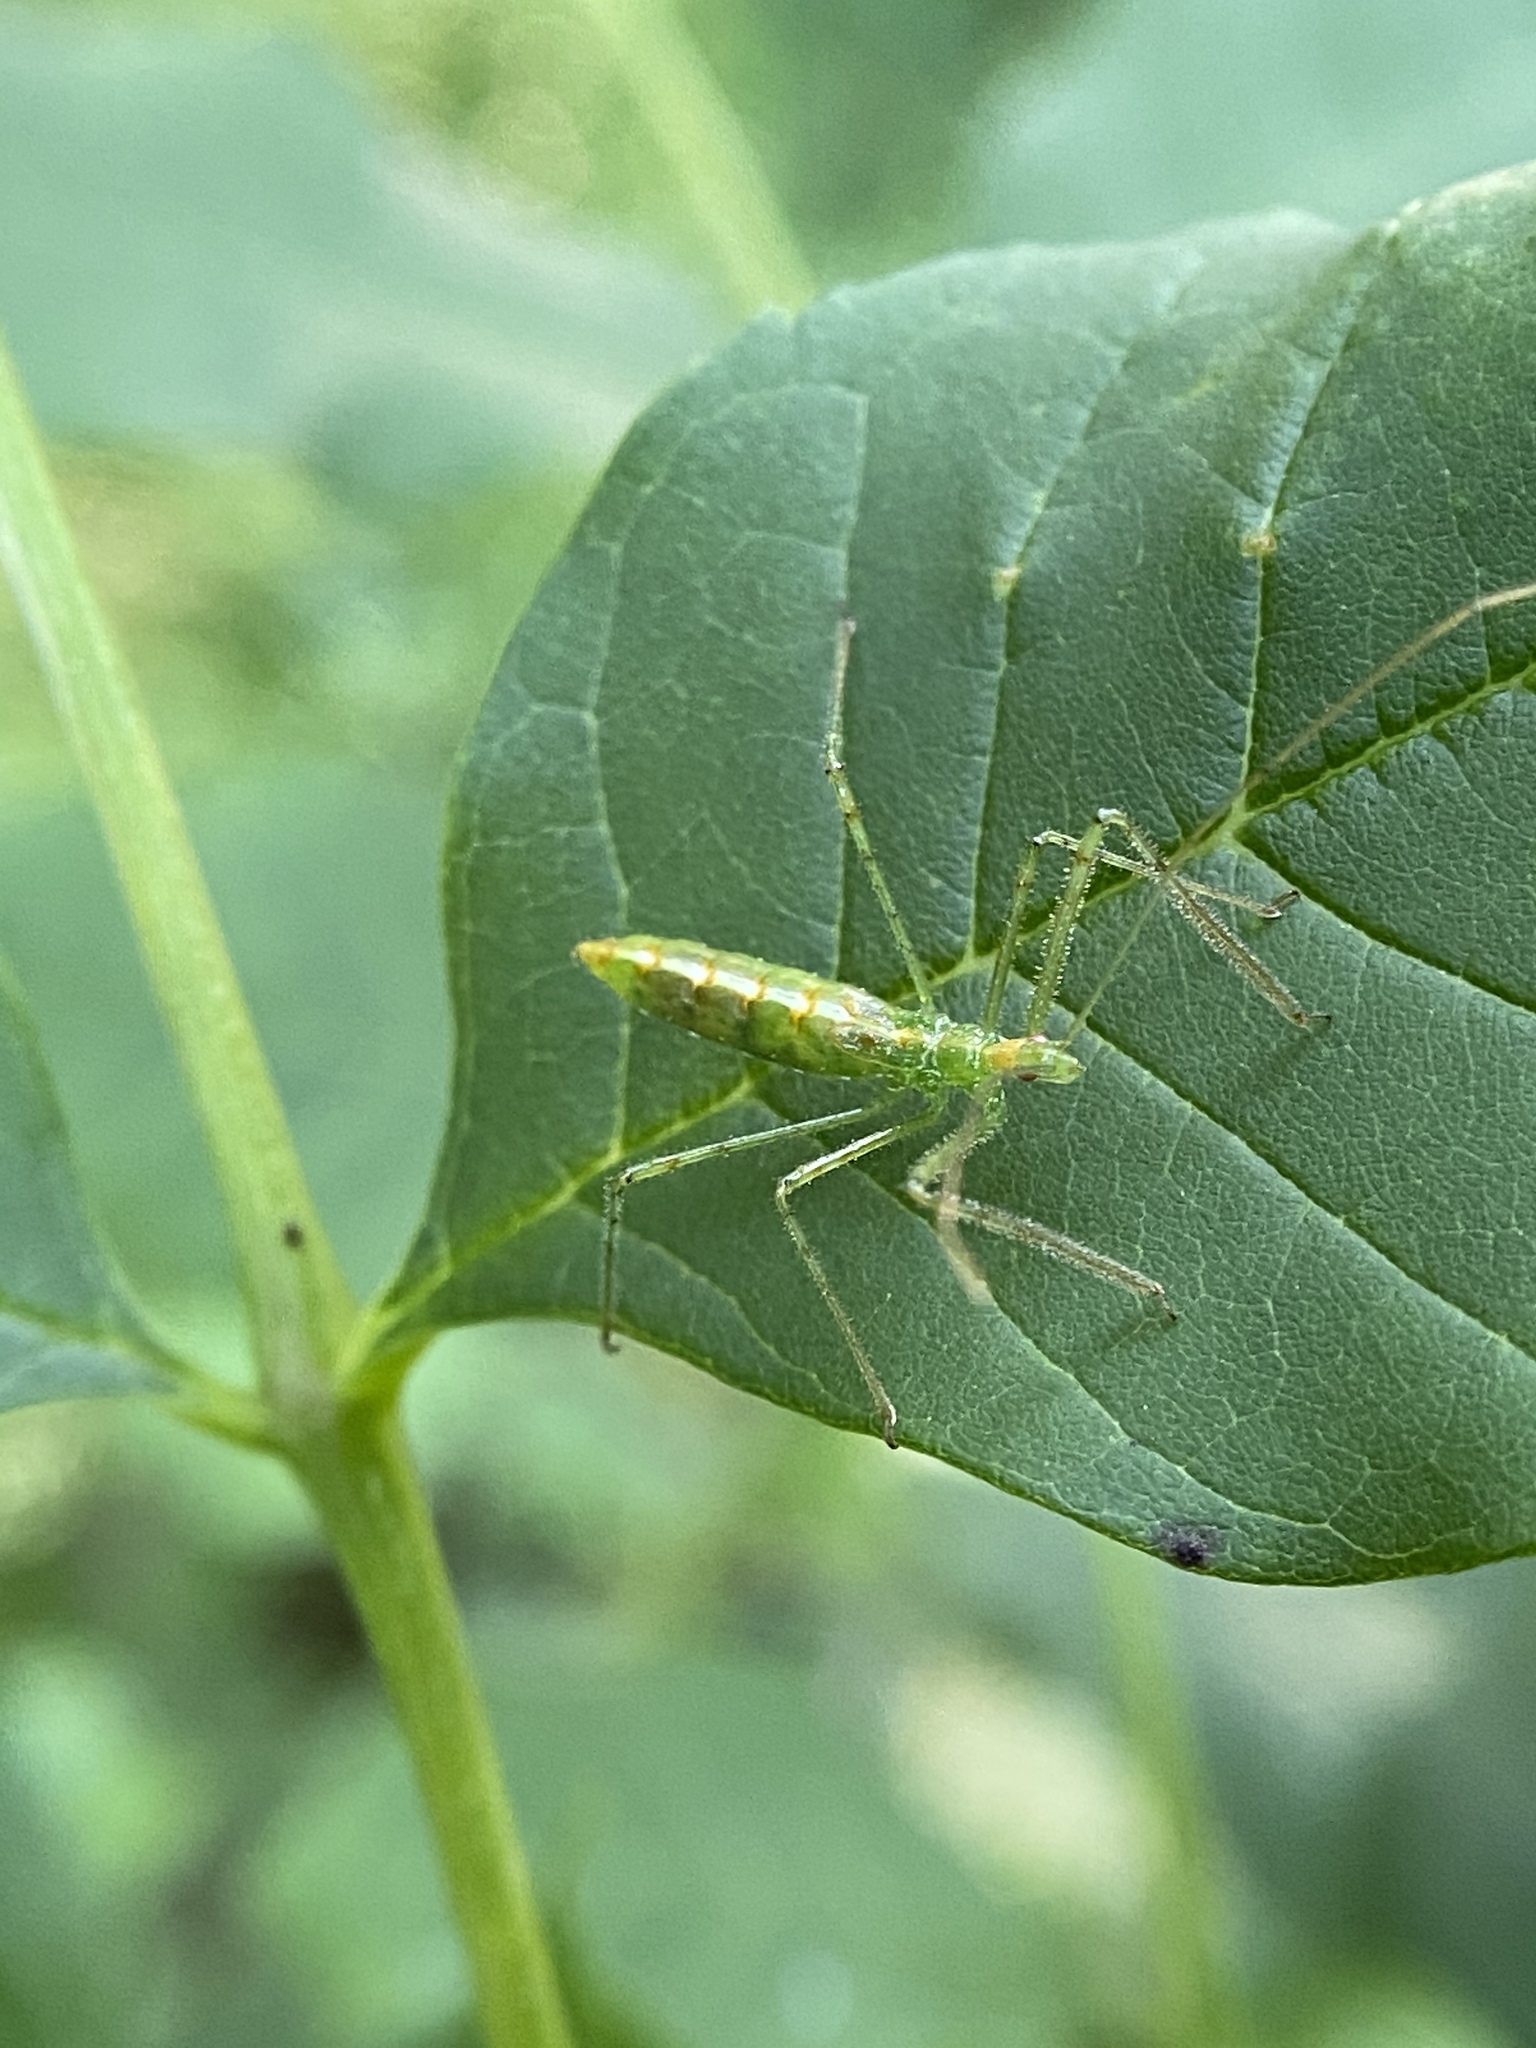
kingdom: Animalia
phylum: Arthropoda
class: Insecta
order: Hemiptera
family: Reduviidae
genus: Zelus
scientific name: Zelus luridus
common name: Pale green assassin bug
